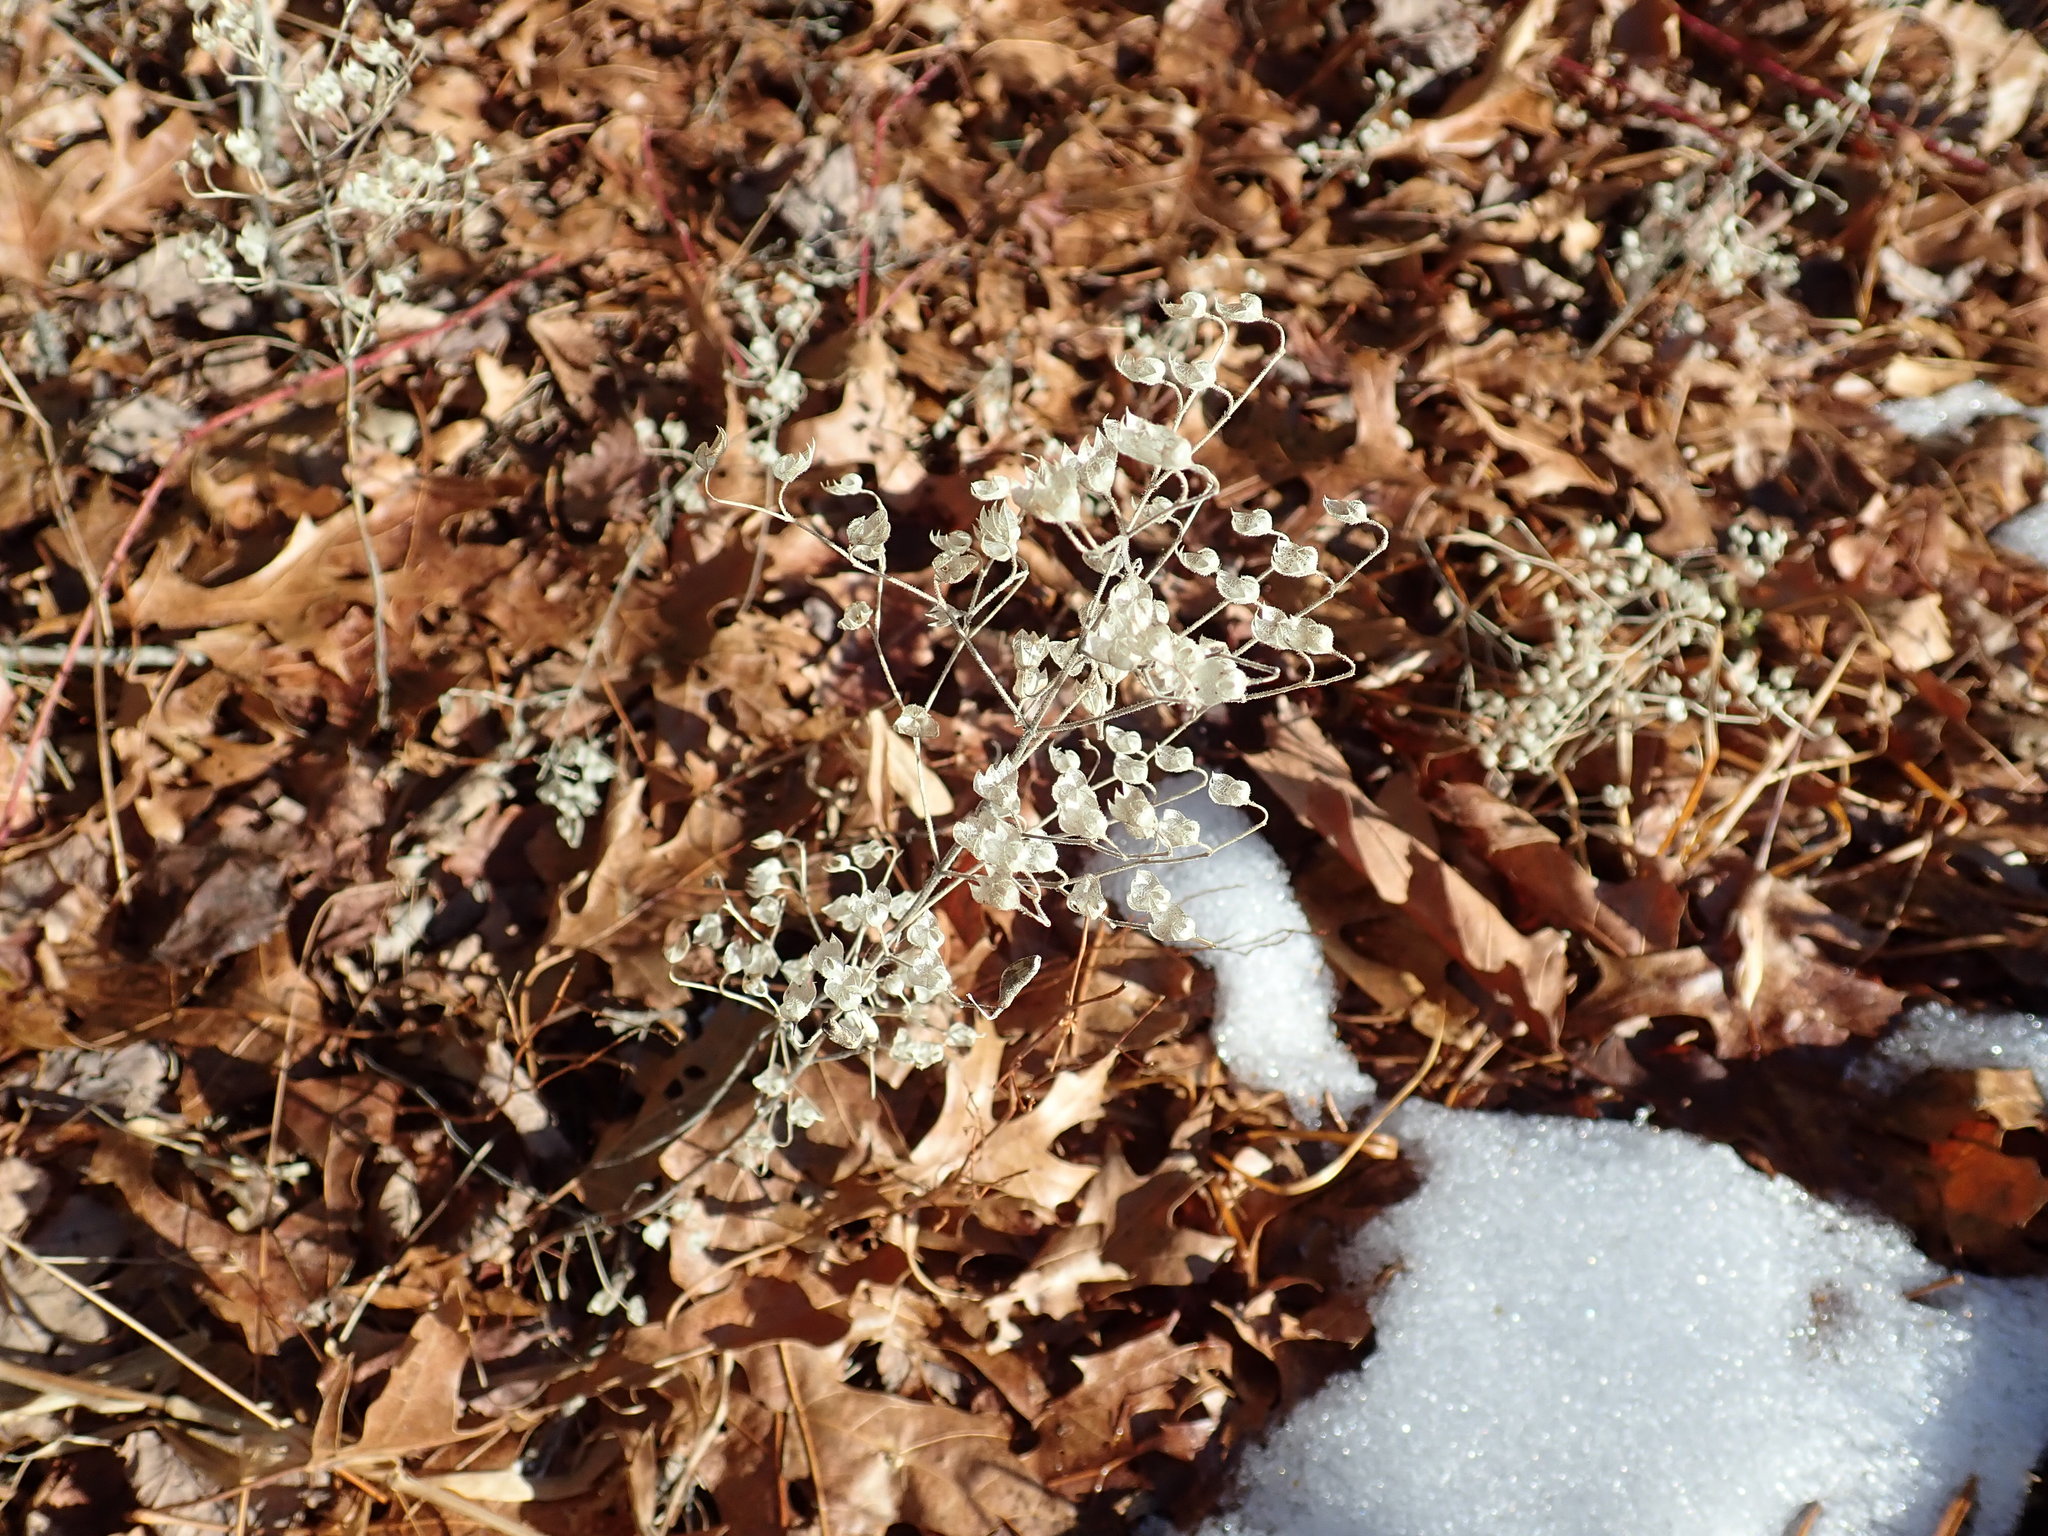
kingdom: Plantae
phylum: Tracheophyta
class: Magnoliopsida
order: Lamiales
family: Lamiaceae
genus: Trichostema
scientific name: Trichostema dichotomum
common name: Bastard pennyroyal
